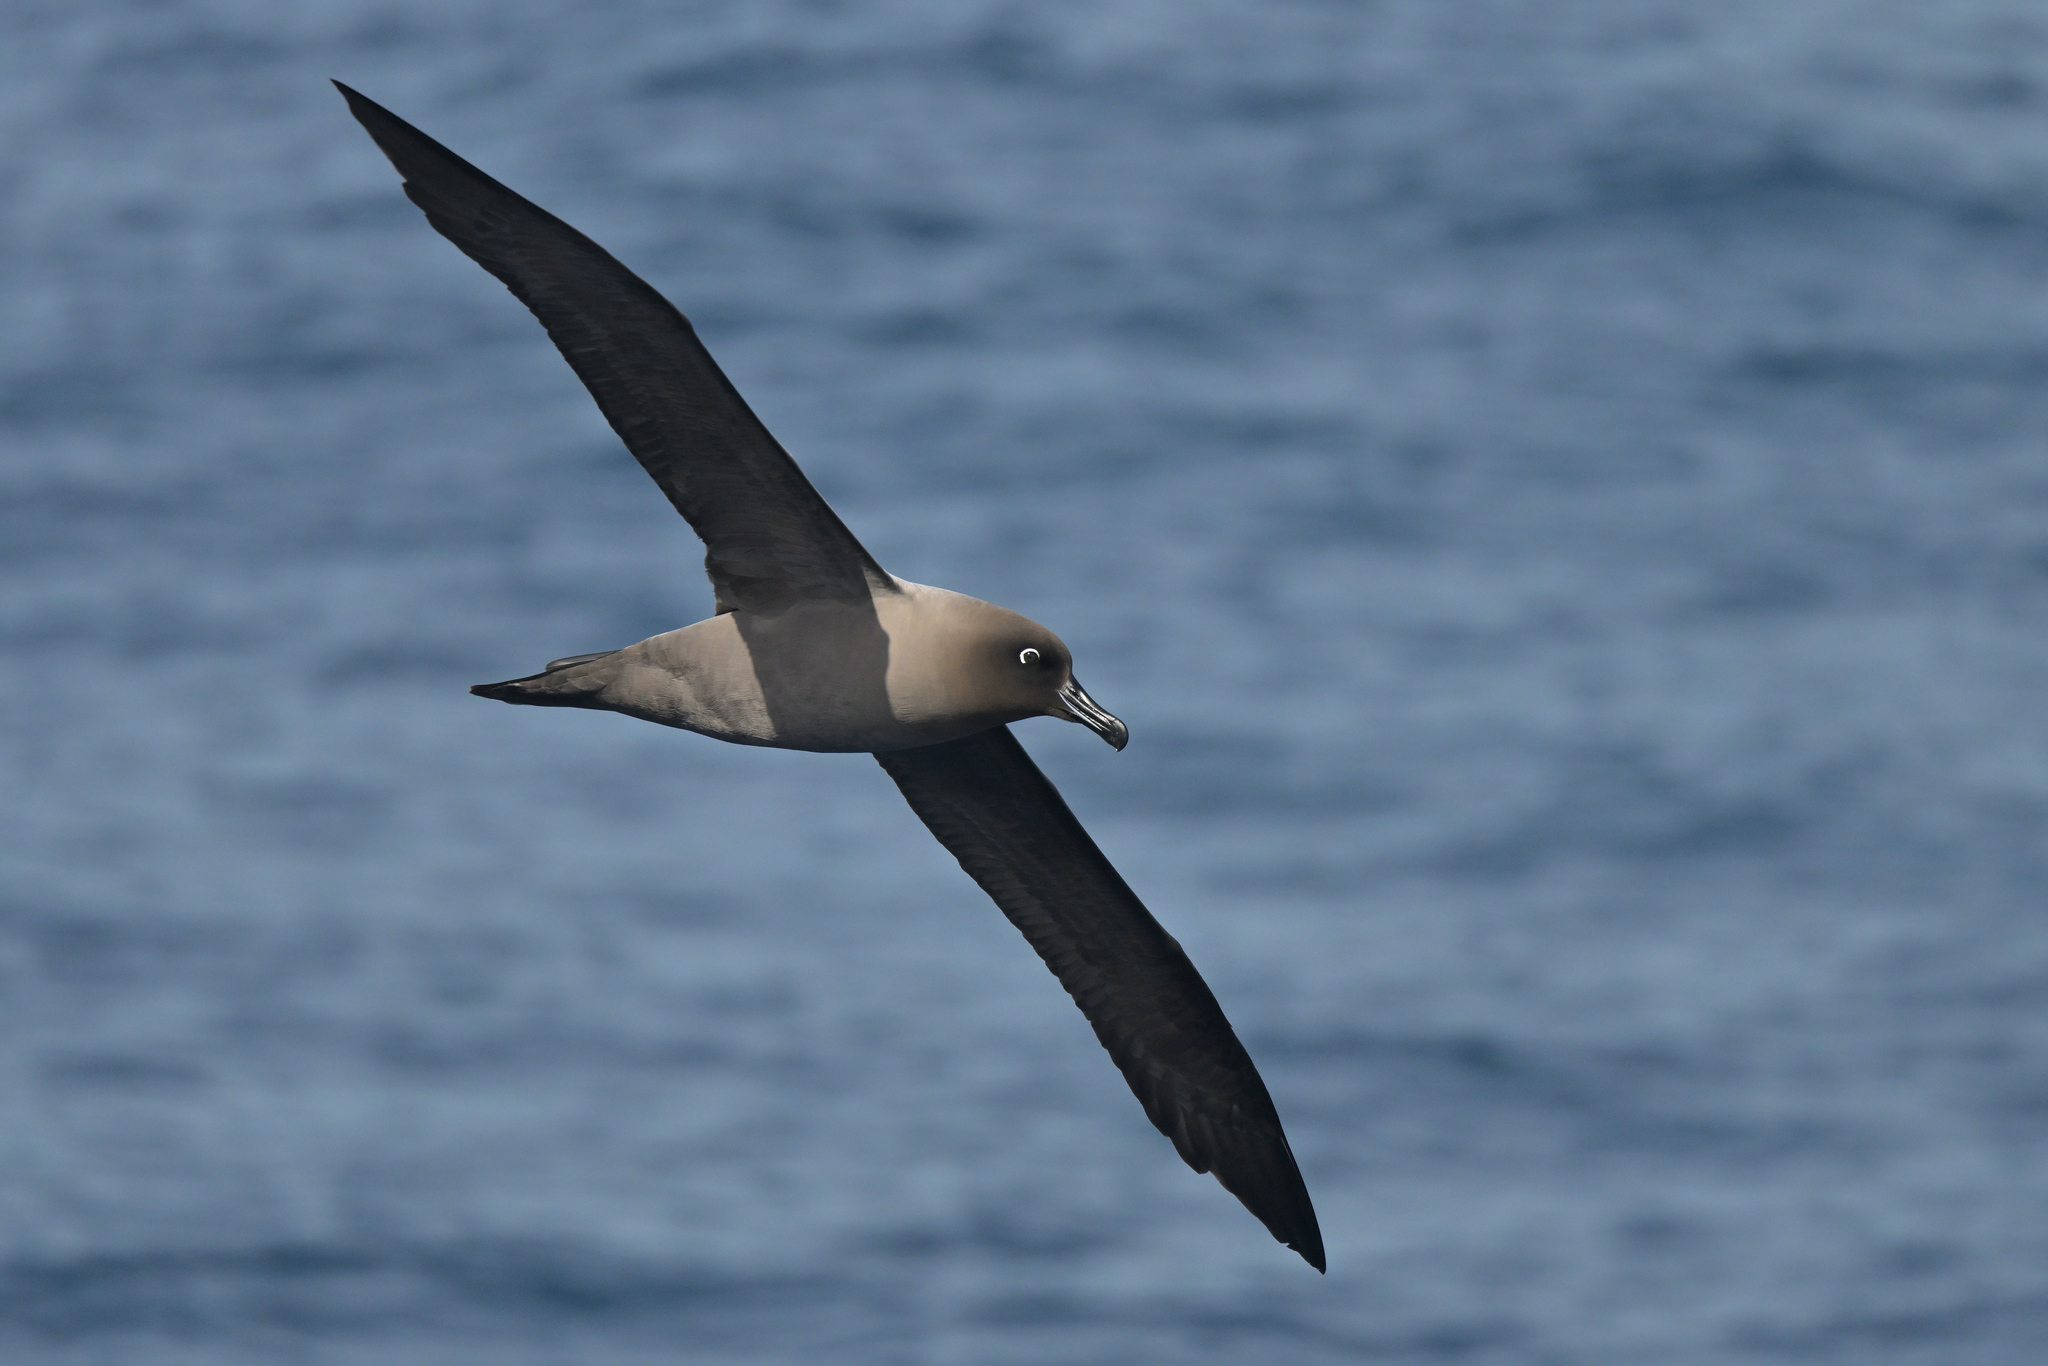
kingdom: Animalia
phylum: Chordata
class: Aves
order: Procellariiformes
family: Diomedeidae
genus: Phoebetria
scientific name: Phoebetria palpebrata
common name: Light-mantled albatross
